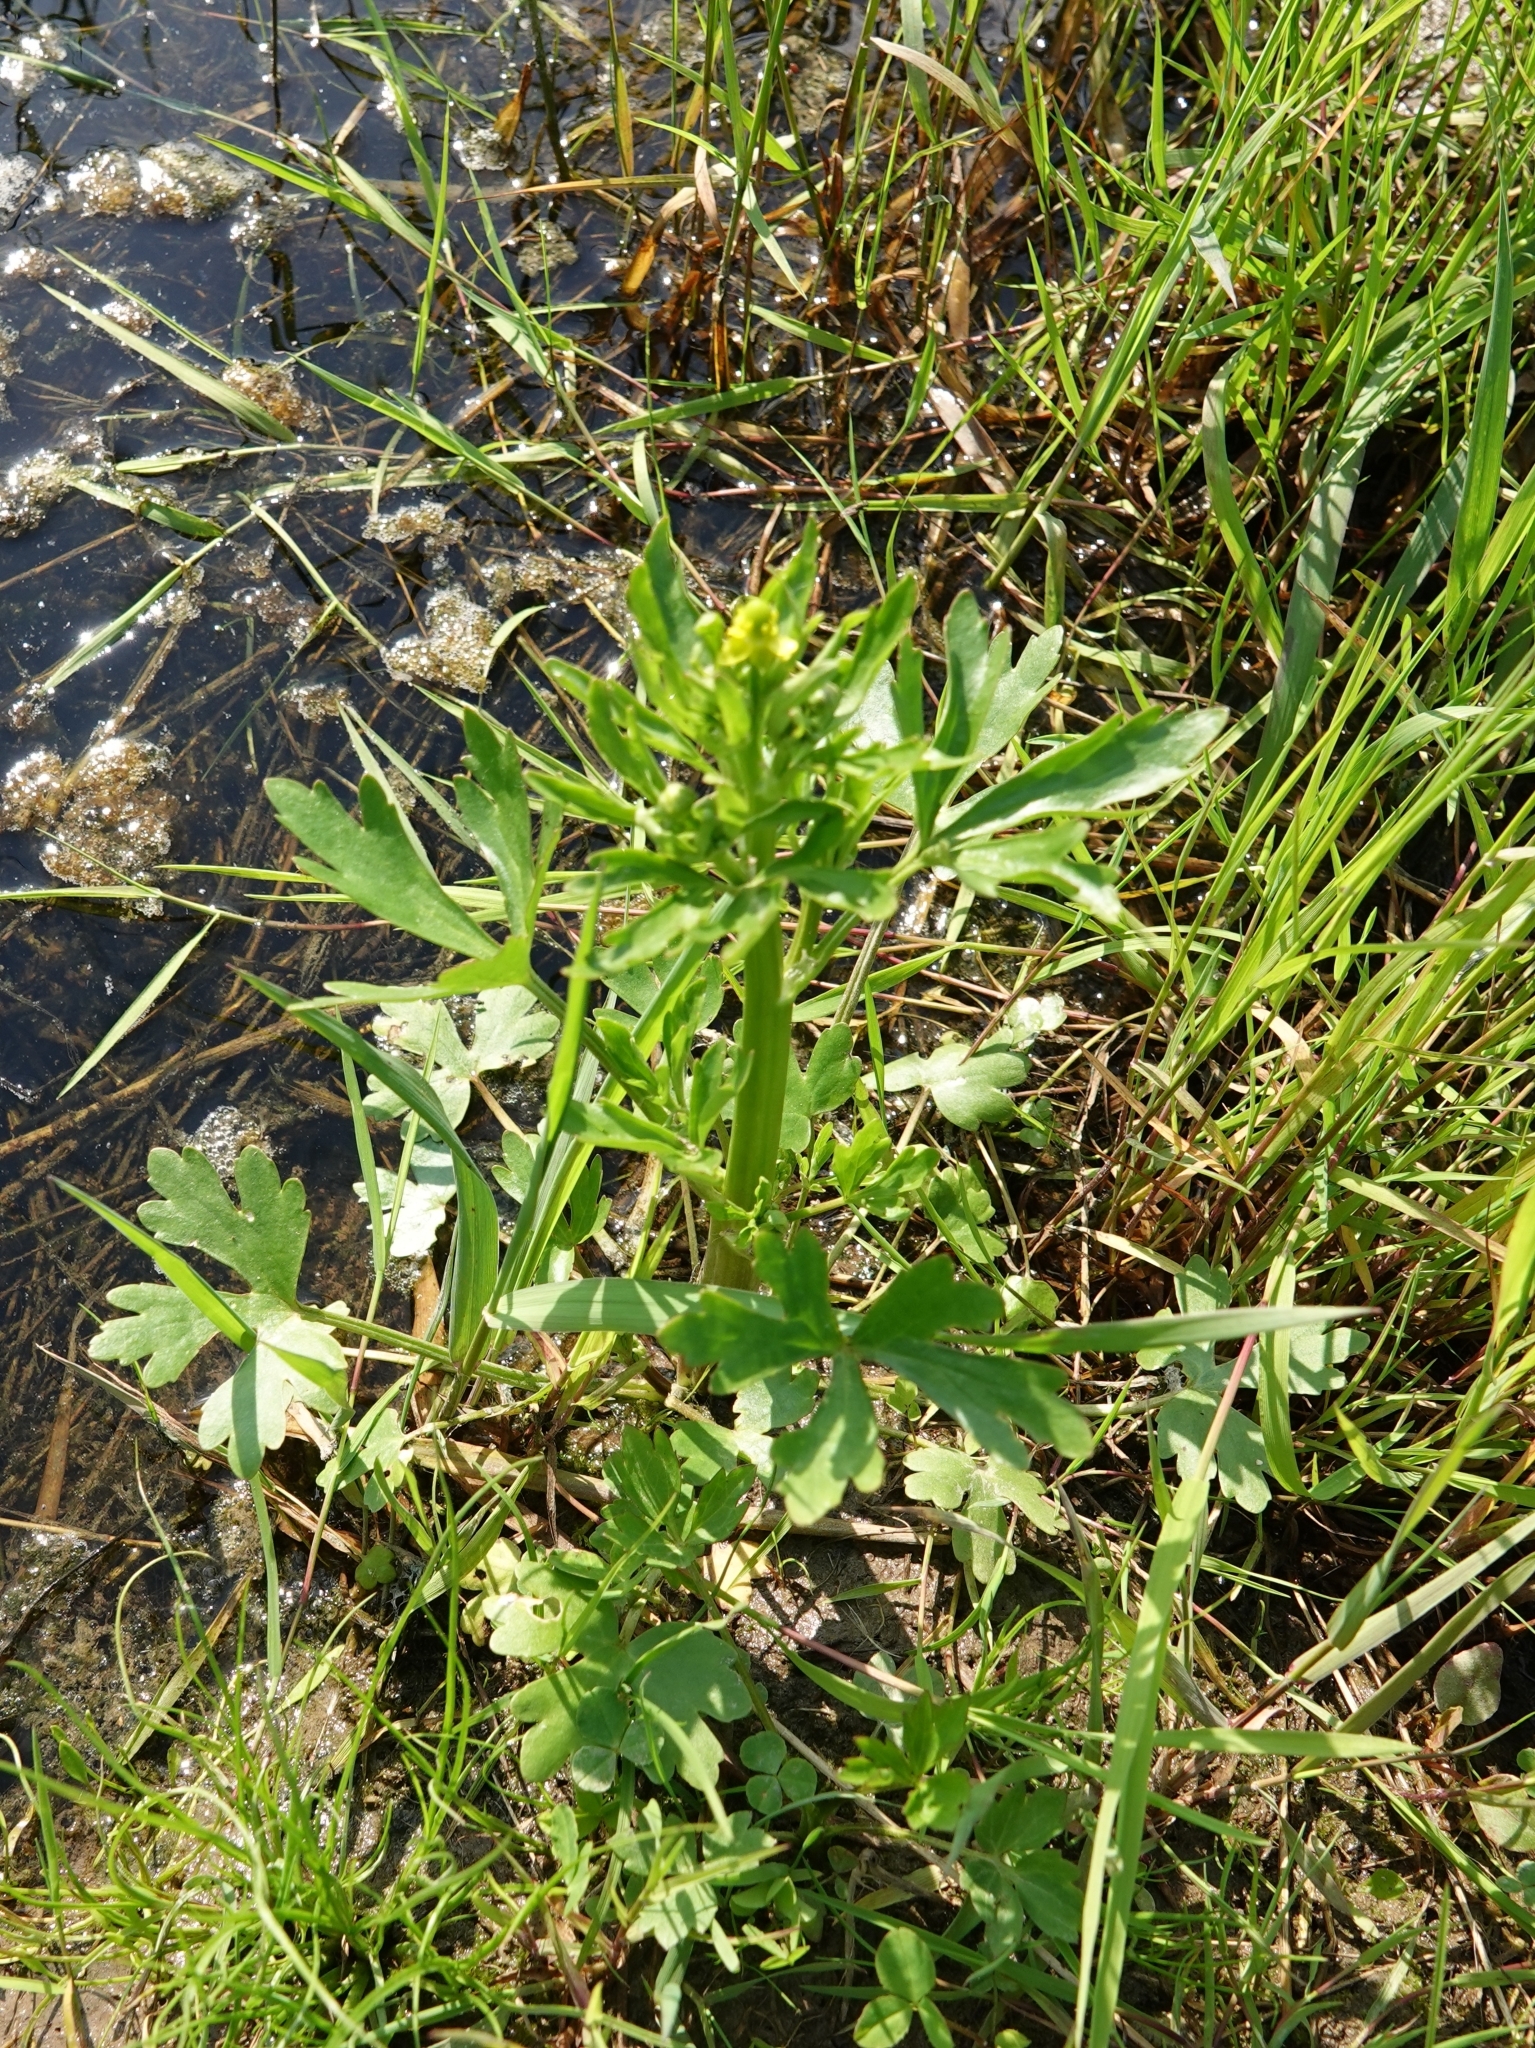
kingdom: Plantae
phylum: Tracheophyta
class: Magnoliopsida
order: Ranunculales
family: Ranunculaceae
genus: Ranunculus
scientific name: Ranunculus sceleratus
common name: Celery-leaved buttercup
